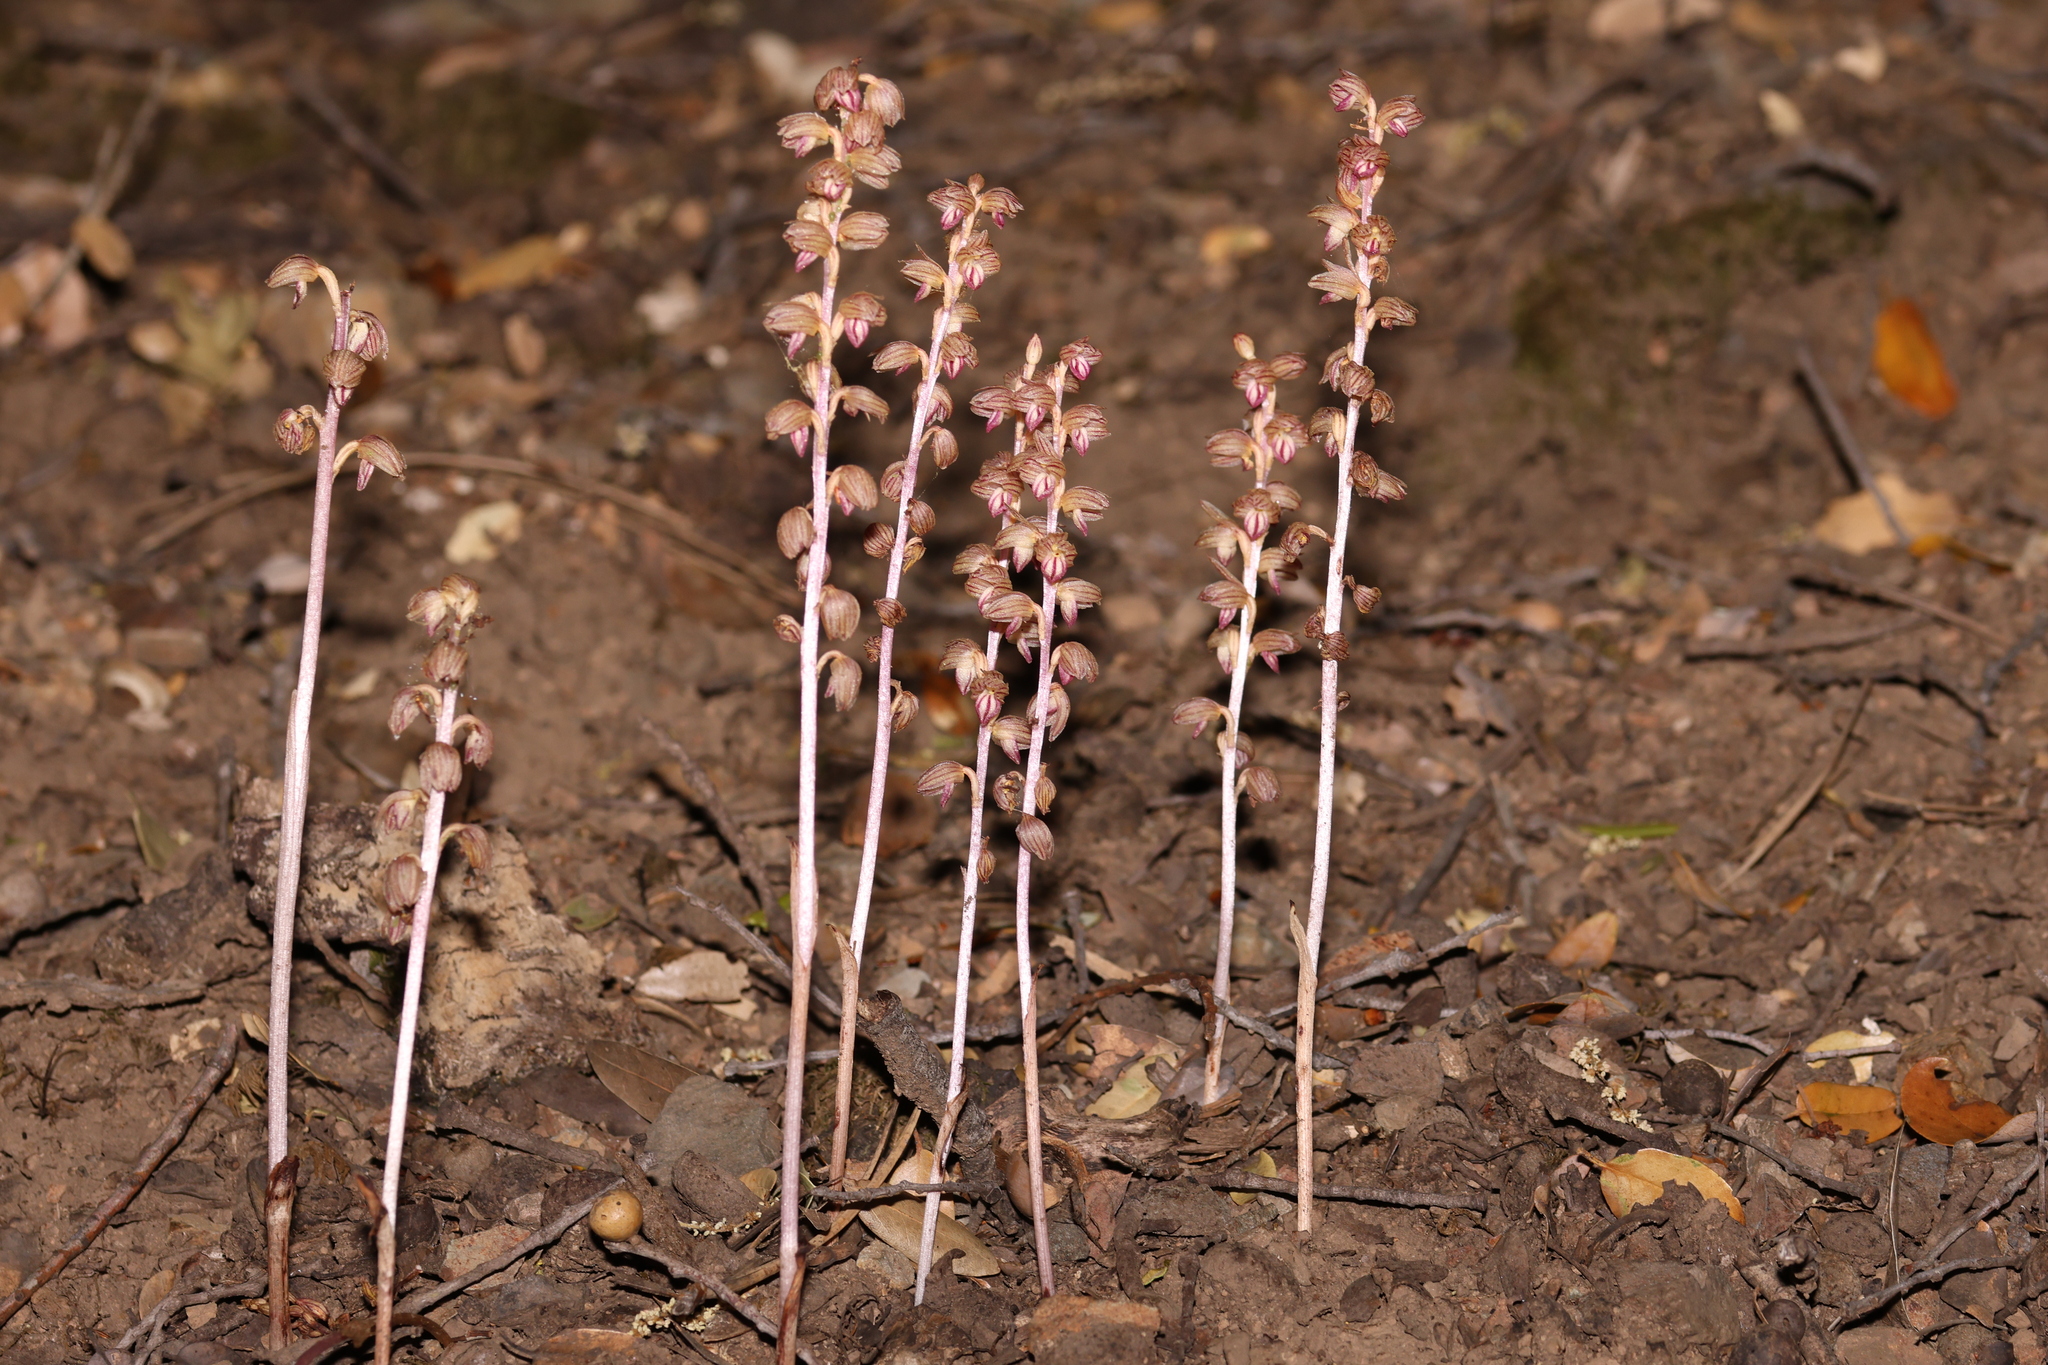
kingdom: Plantae
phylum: Tracheophyta
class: Liliopsida
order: Asparagales
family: Orchidaceae
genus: Corallorhiza
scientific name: Corallorhiza striata
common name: Hooded coralroot
